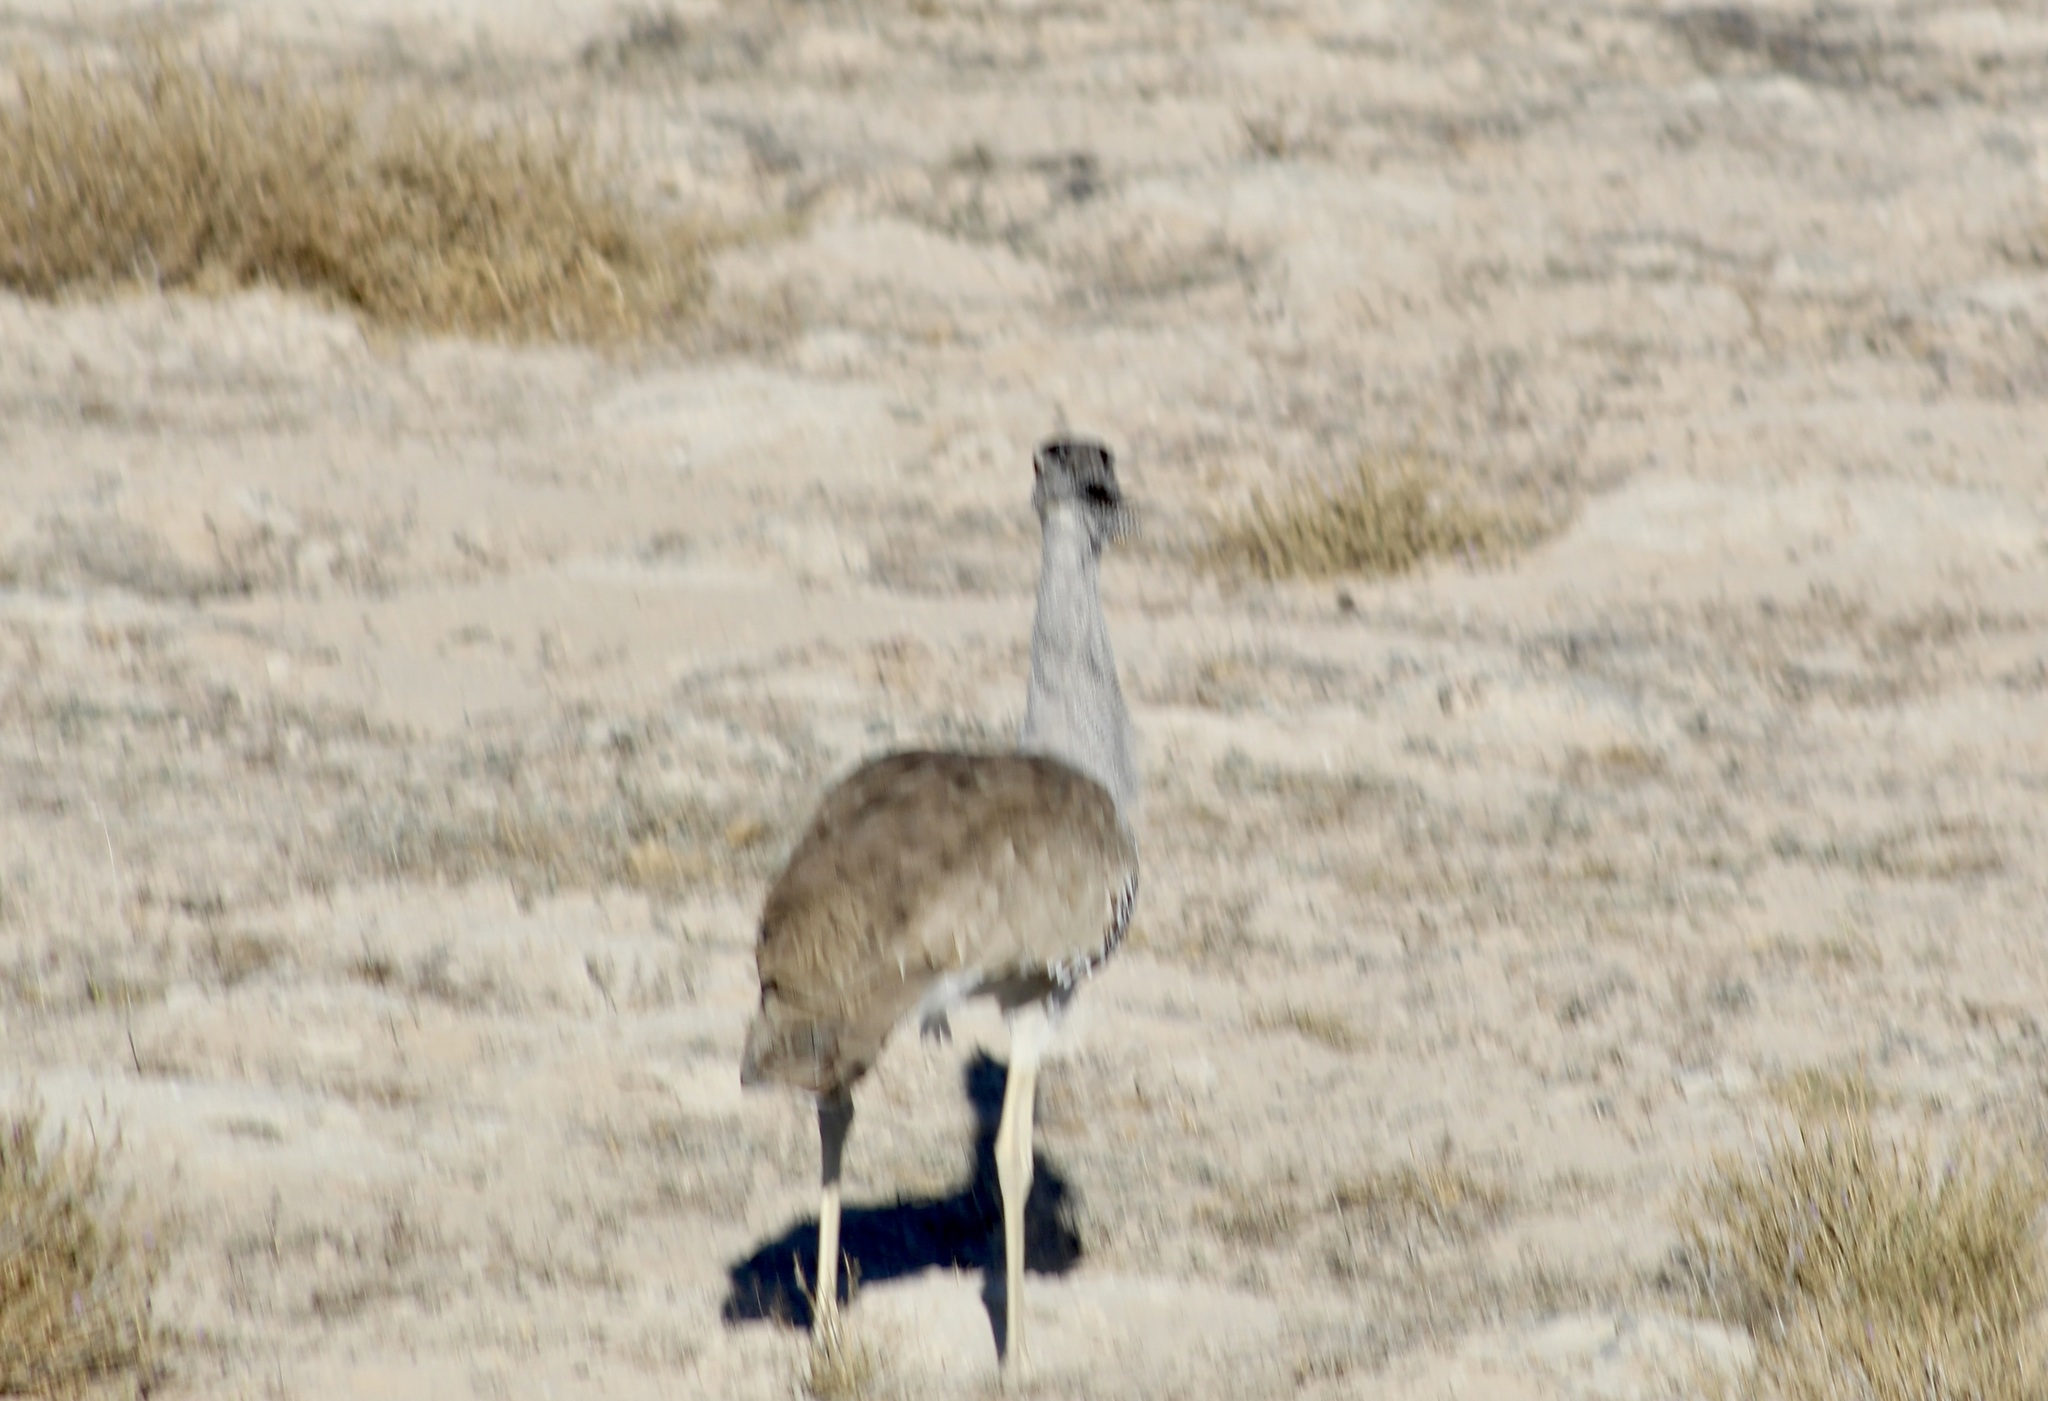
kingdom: Animalia
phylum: Chordata
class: Aves
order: Otidiformes
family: Otididae
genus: Ardeotis
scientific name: Ardeotis kori
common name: Kori bustard
